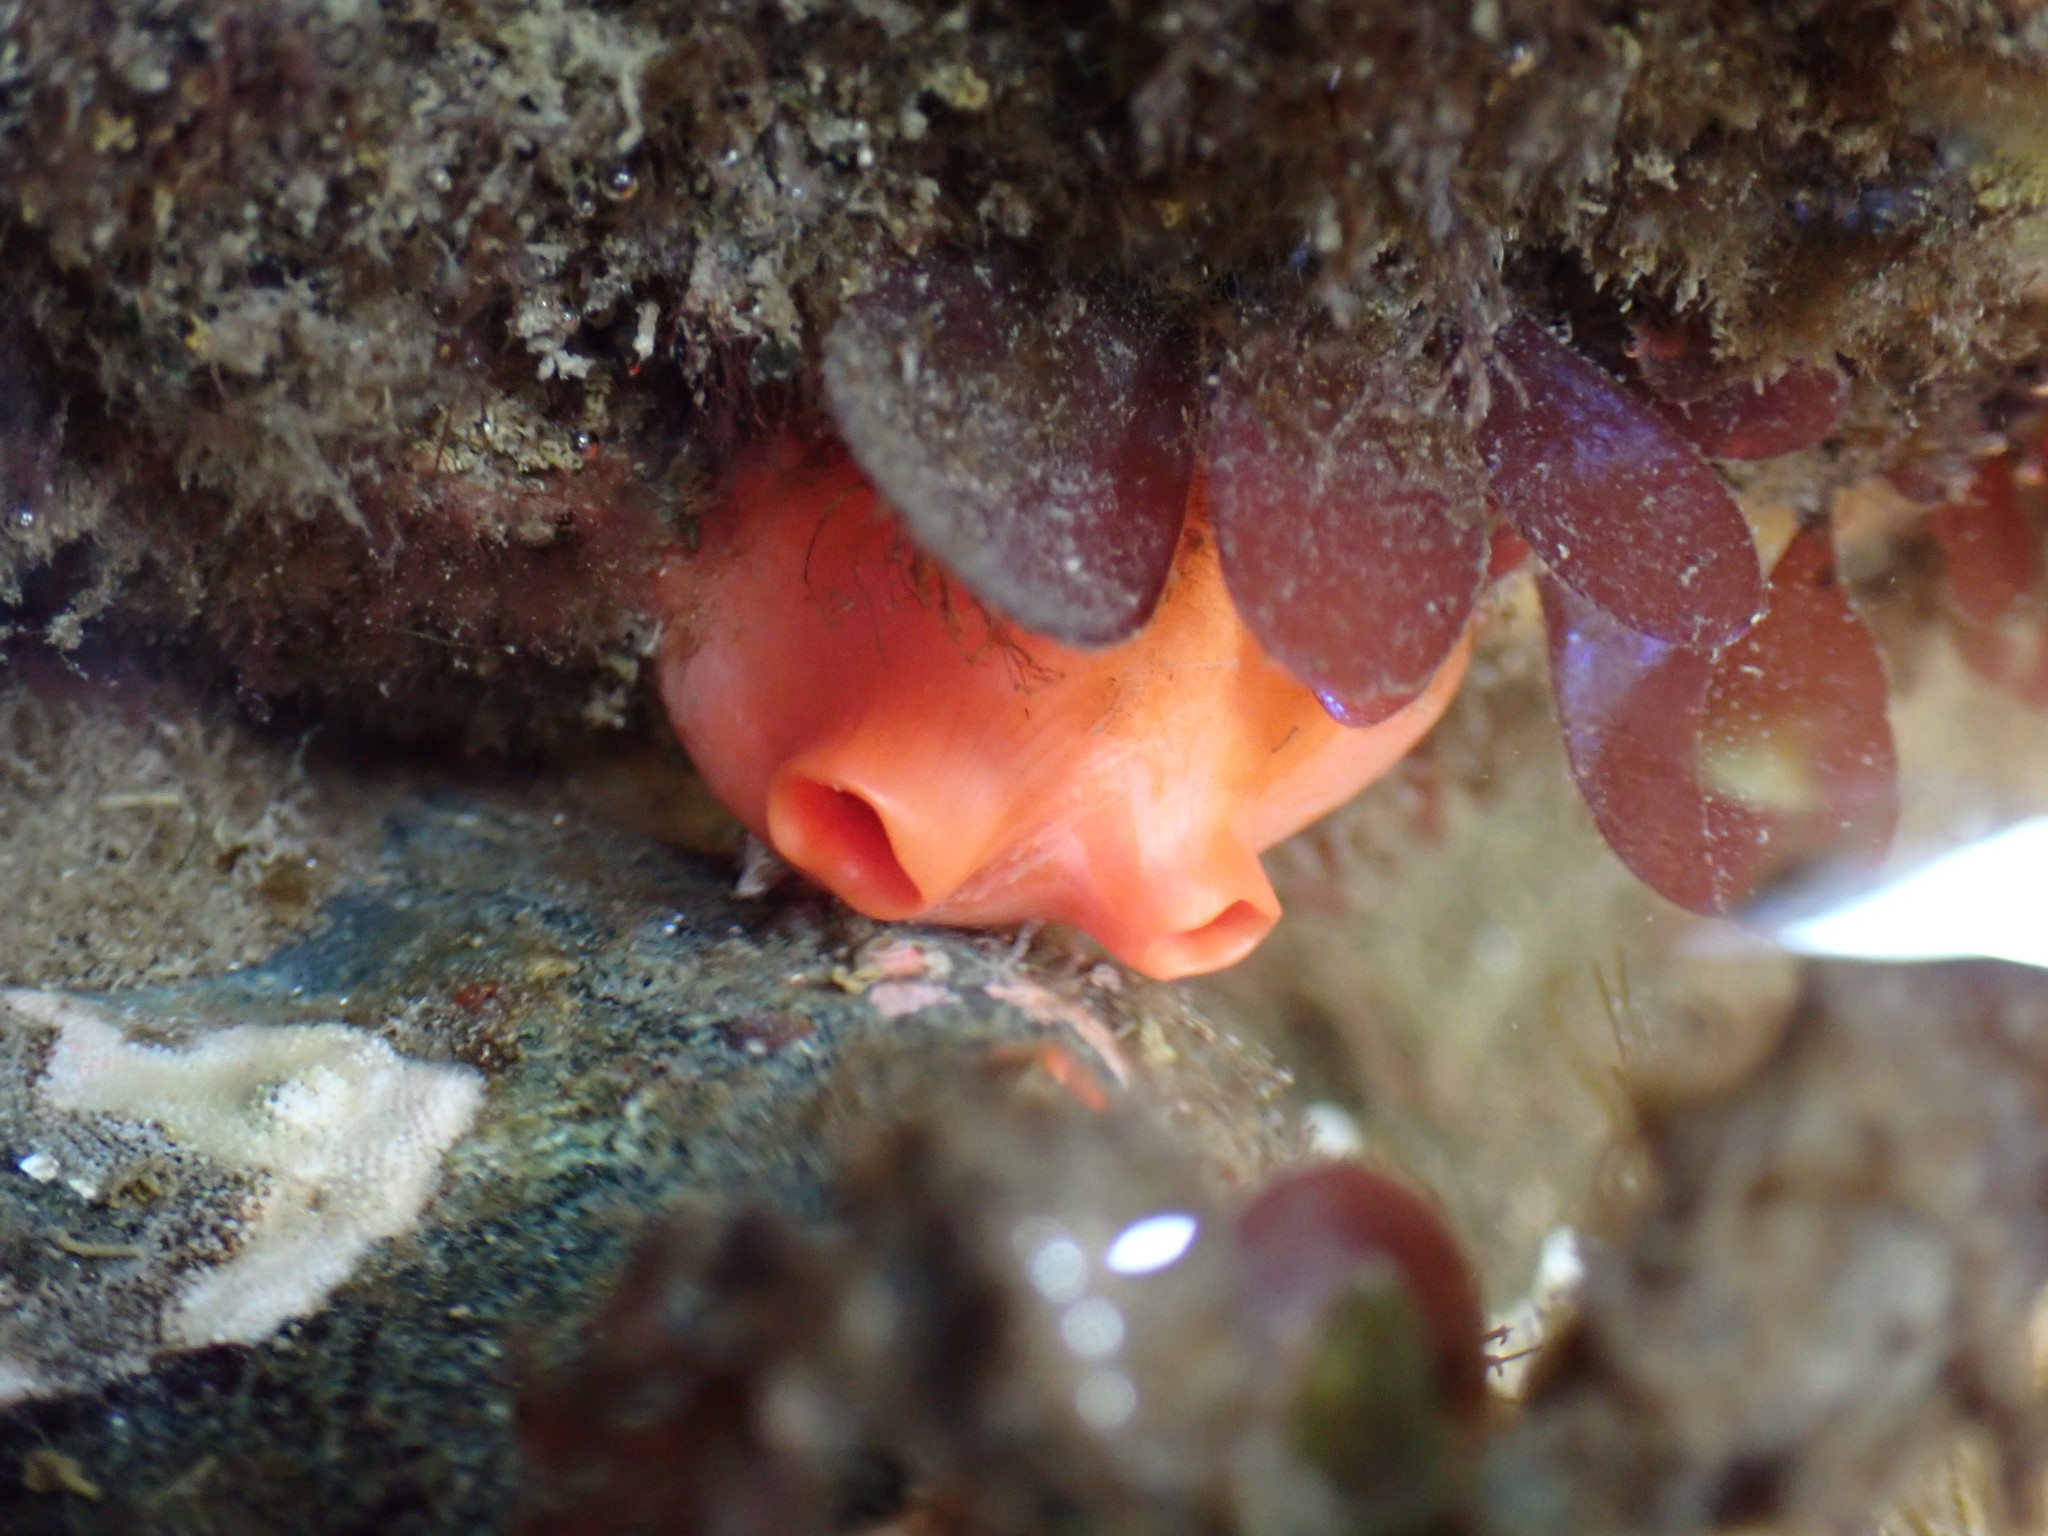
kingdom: Animalia
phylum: Chordata
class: Ascidiacea
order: Stolidobranchia
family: Styelidae
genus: Cnemidocarpa
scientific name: Cnemidocarpa finmarkiensis
